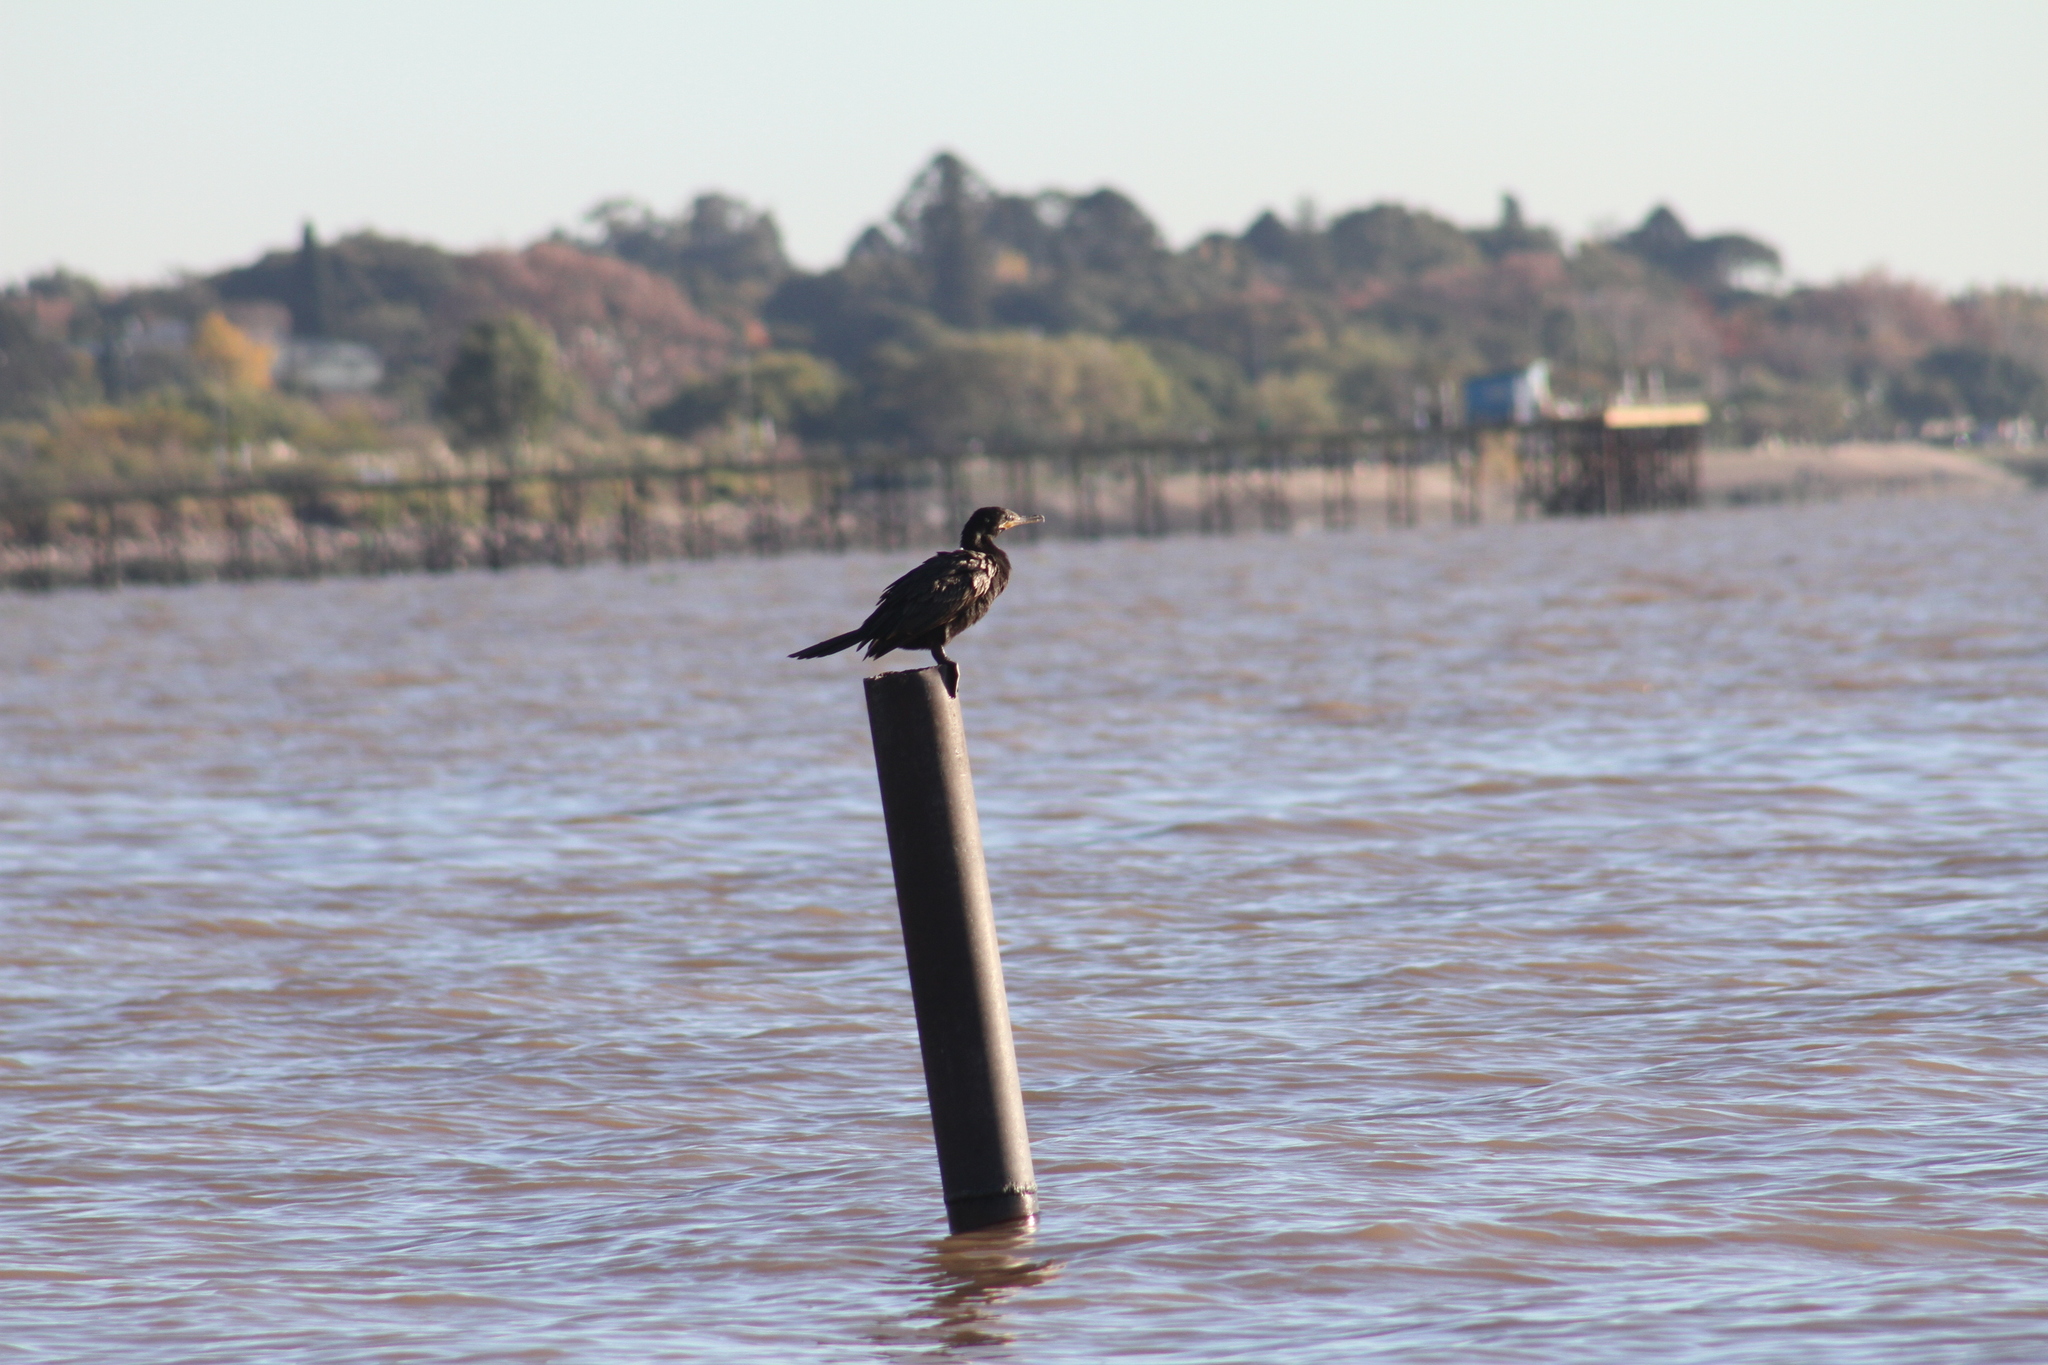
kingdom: Animalia
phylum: Chordata
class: Aves
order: Suliformes
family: Phalacrocoracidae
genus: Phalacrocorax
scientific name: Phalacrocorax brasilianus
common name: Neotropic cormorant
